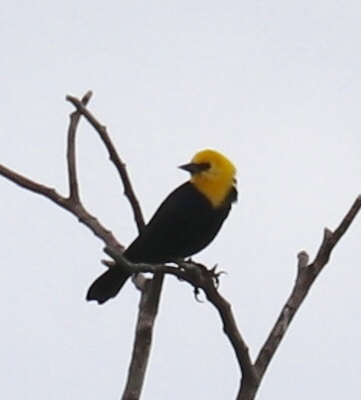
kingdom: Animalia
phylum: Chordata
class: Aves
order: Passeriformes
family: Icteridae
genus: Chrysomus
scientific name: Chrysomus icterocephalus
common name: Yellow-hooded blackbird
